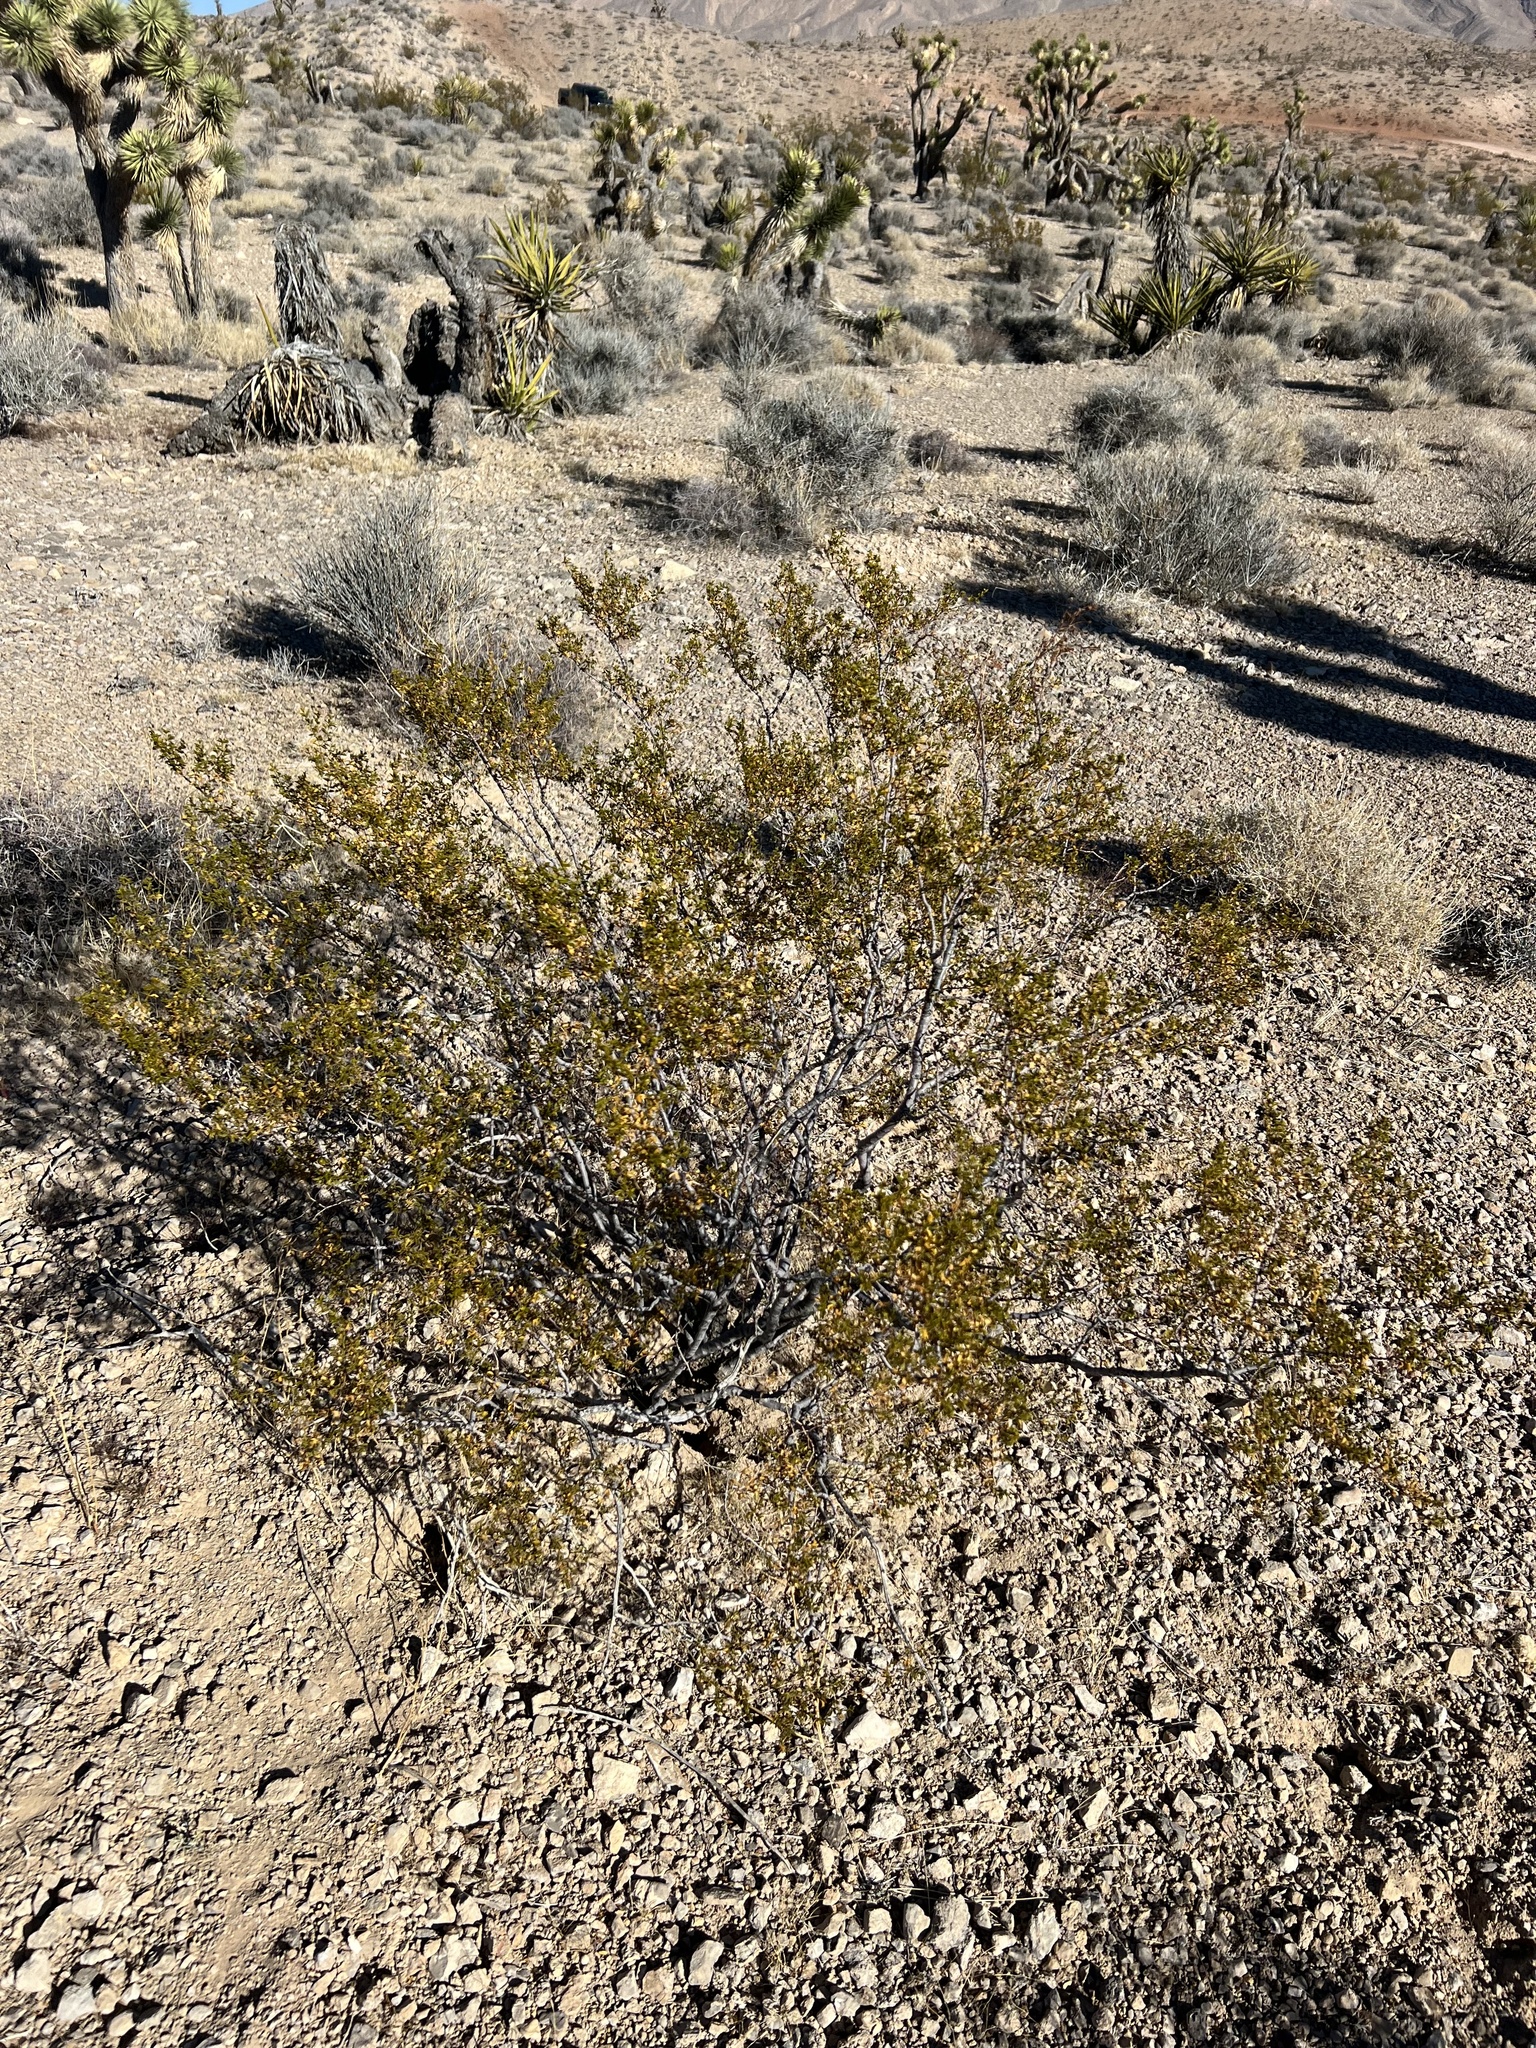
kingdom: Plantae
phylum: Tracheophyta
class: Magnoliopsida
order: Zygophyllales
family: Zygophyllaceae
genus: Larrea
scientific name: Larrea tridentata
